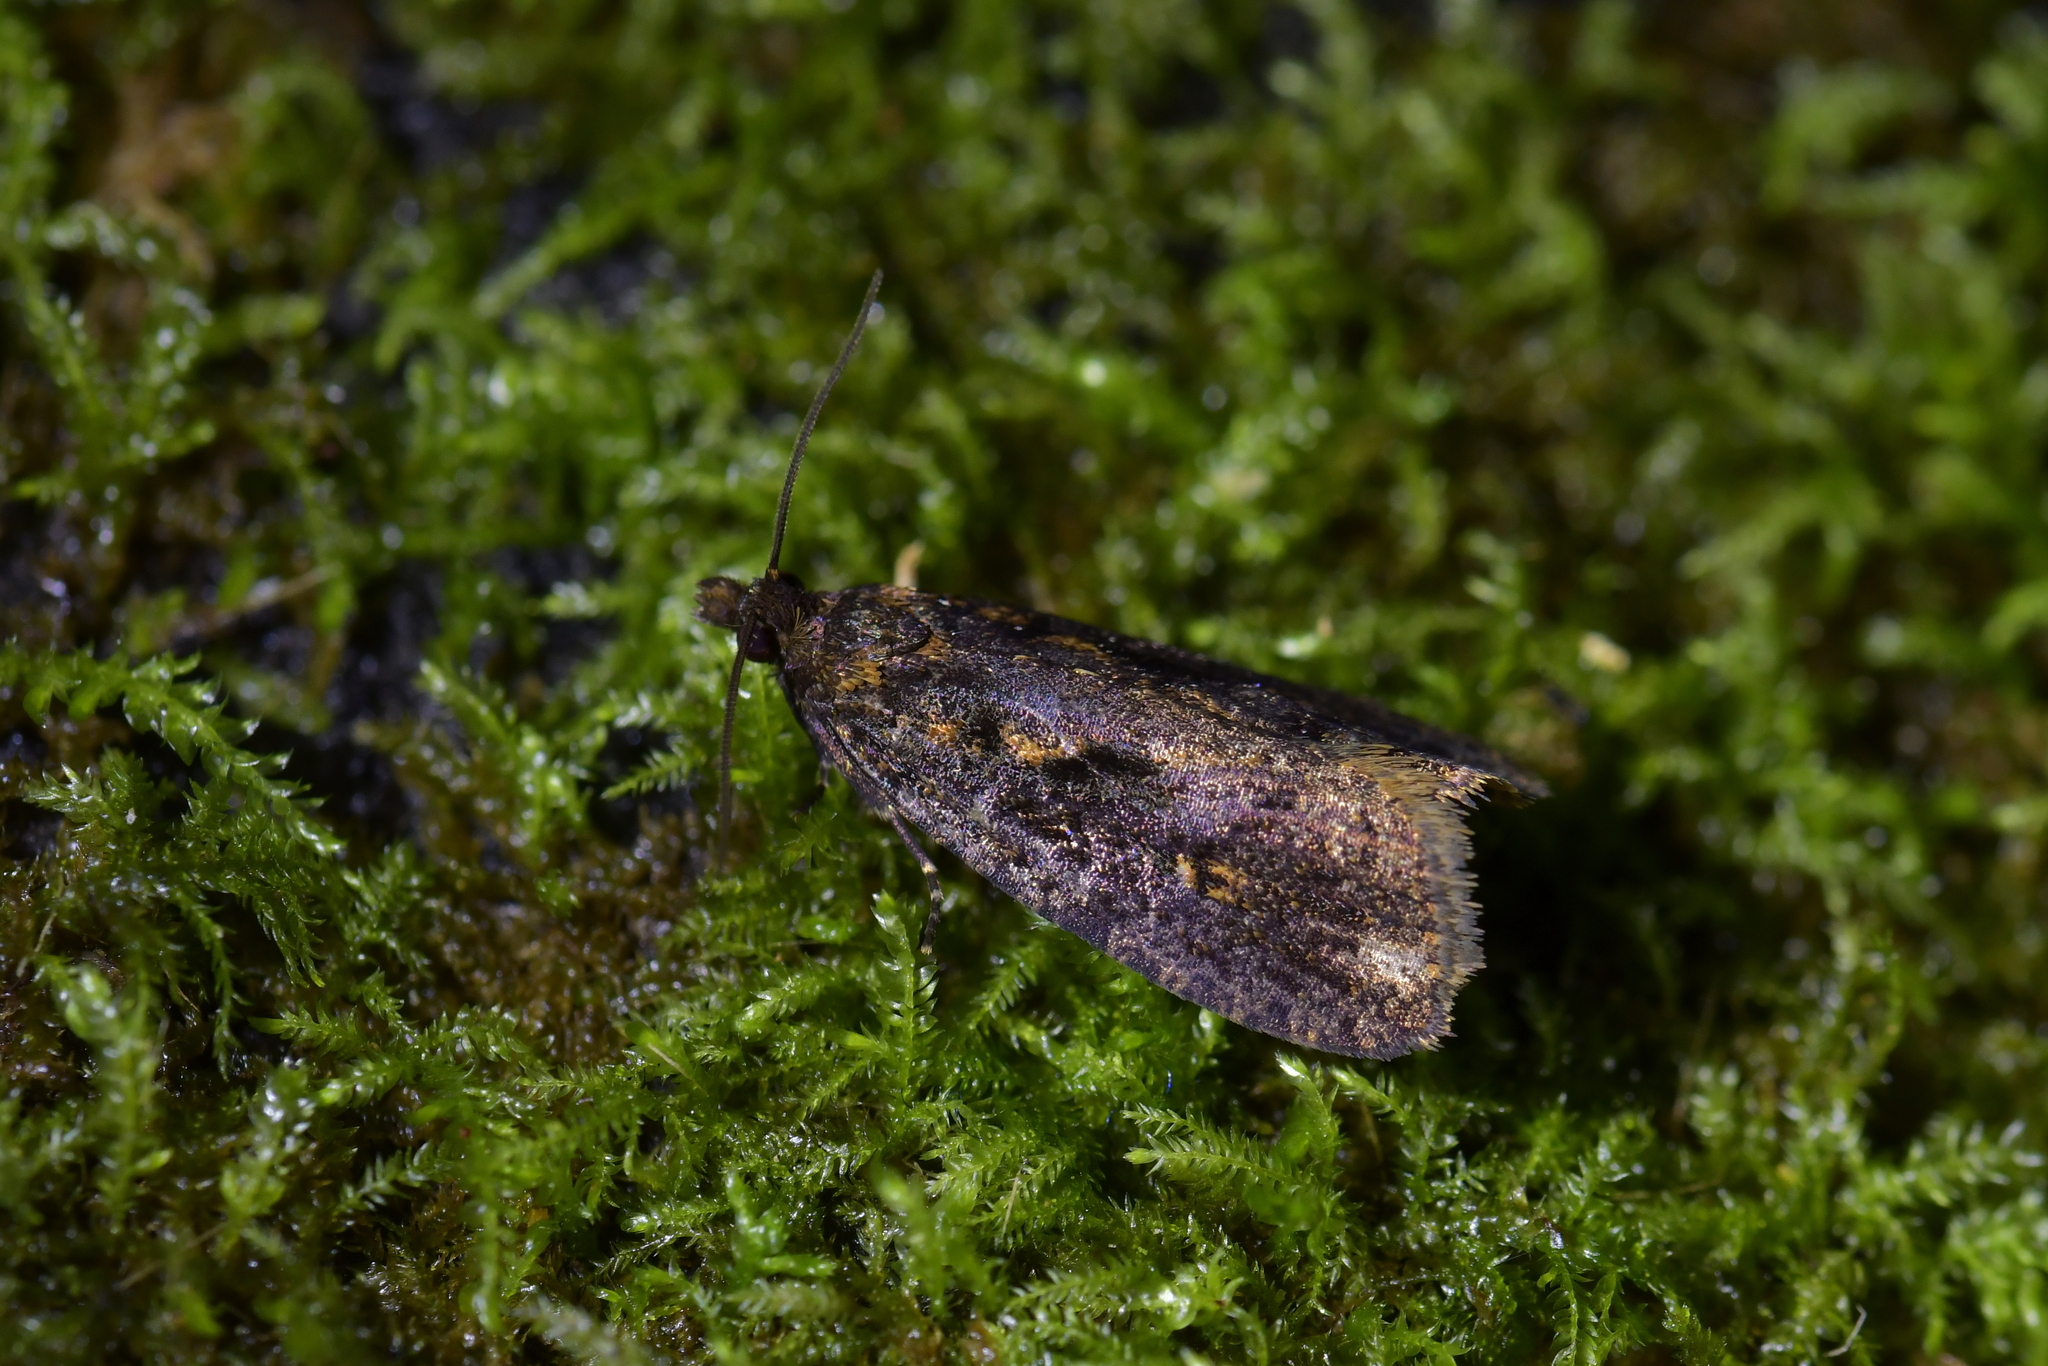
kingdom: Animalia
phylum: Arthropoda
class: Insecta
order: Lepidoptera
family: Tortricidae
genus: Cryptaspasma
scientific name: Cryptaspasma querula
